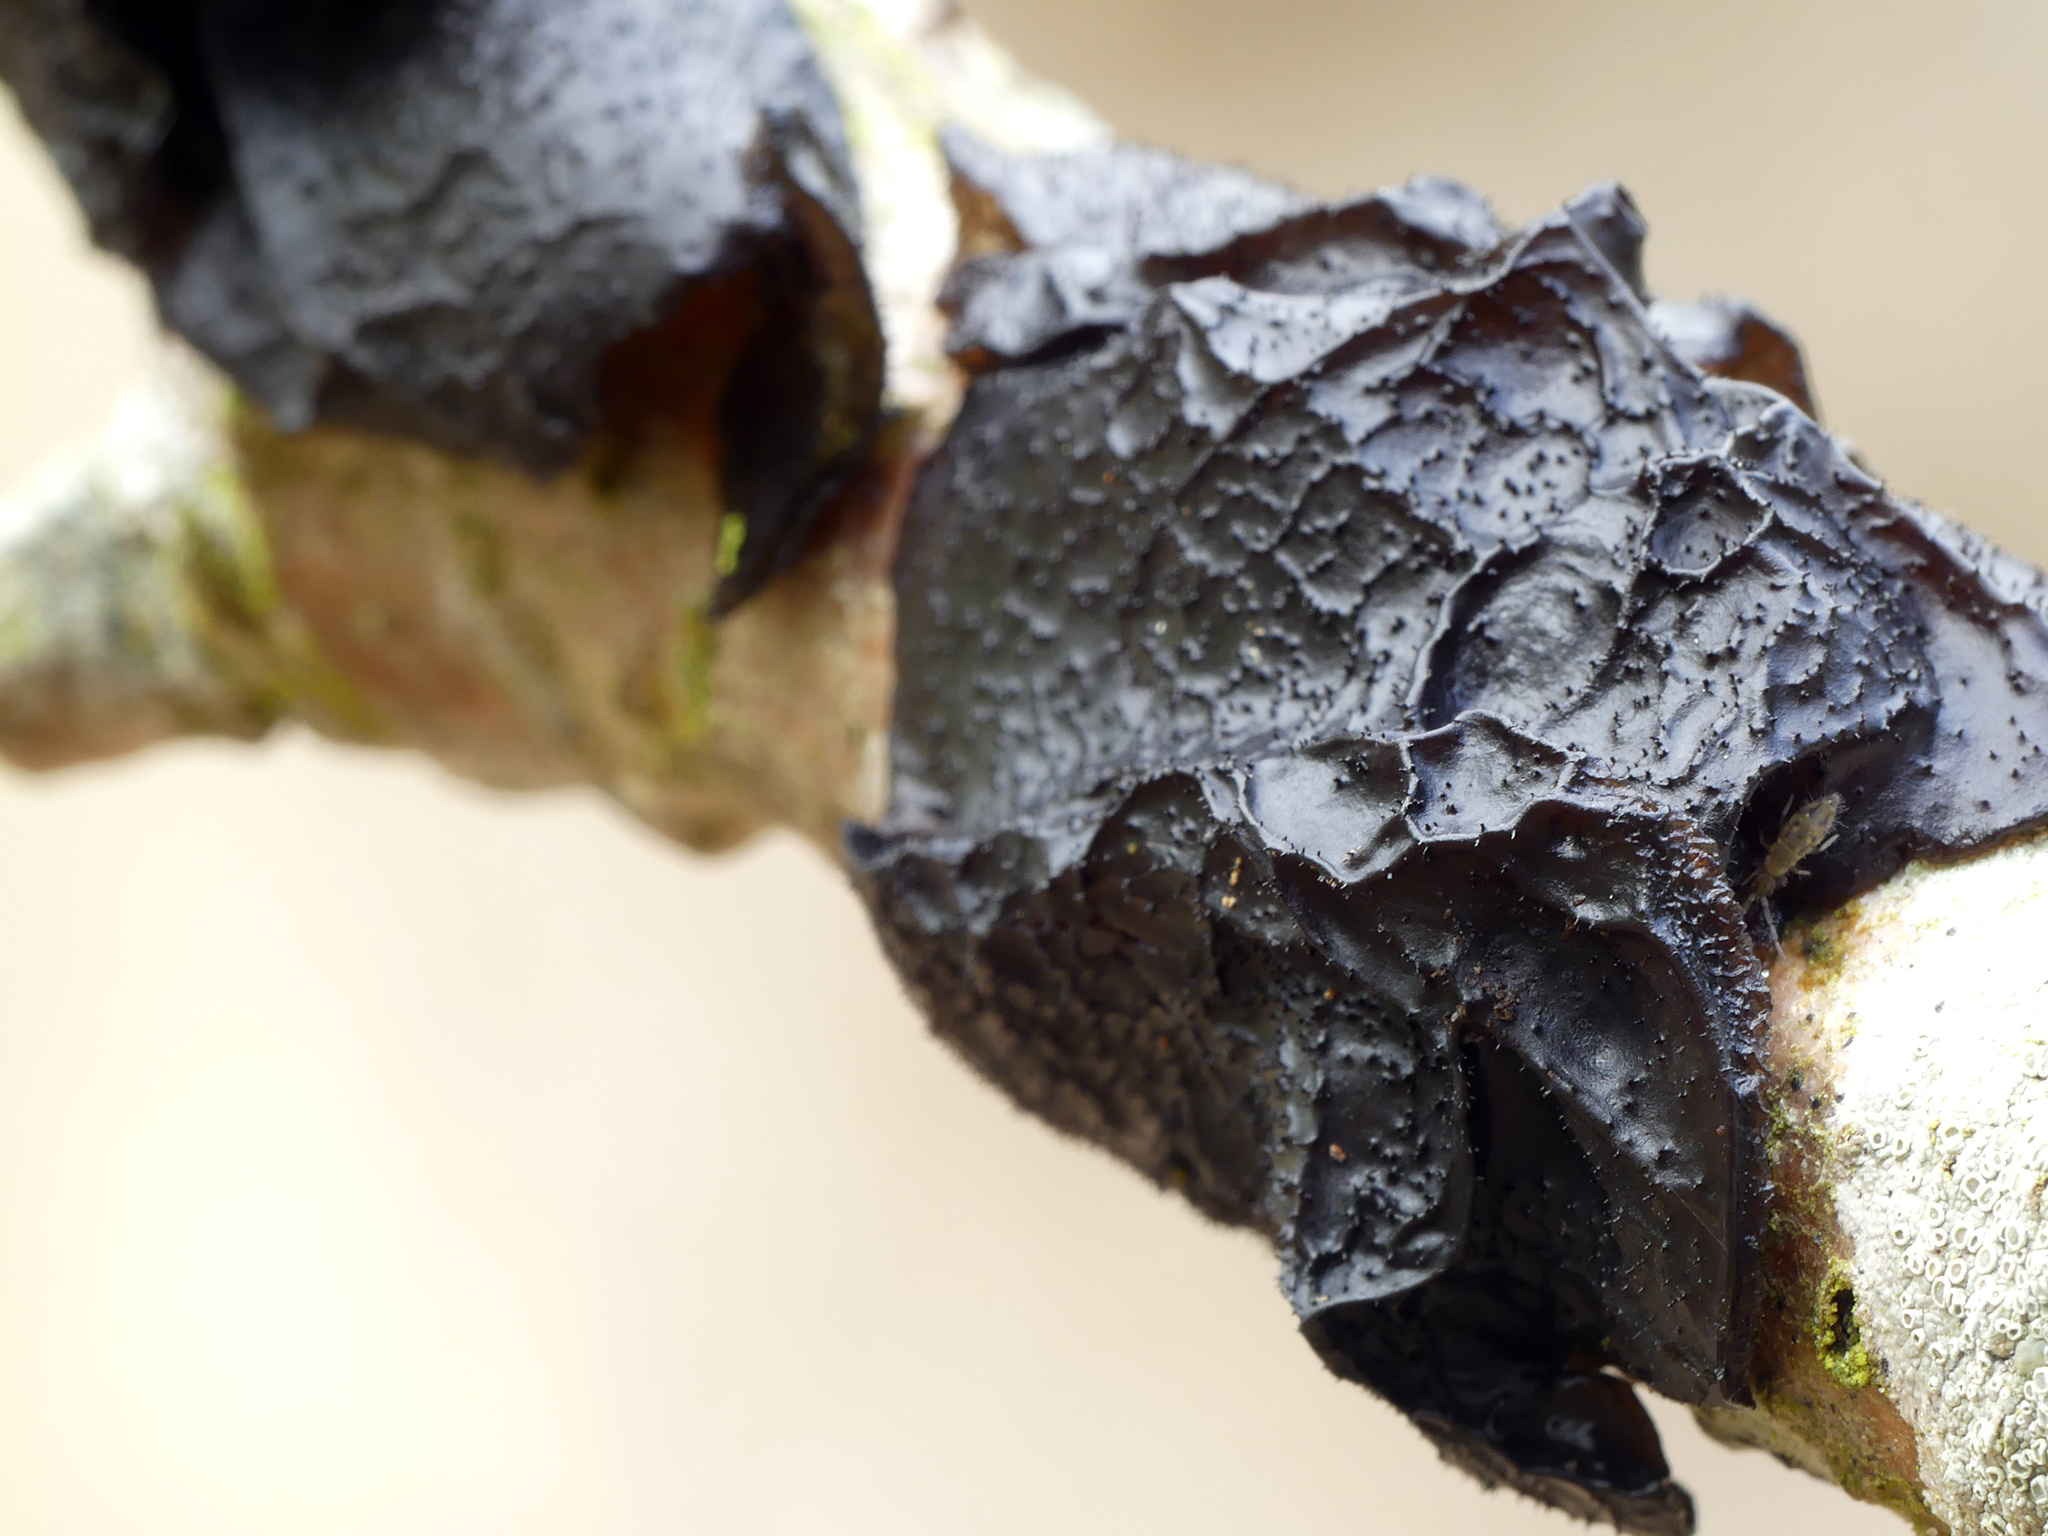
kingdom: Fungi
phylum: Basidiomycota
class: Agaricomycetes
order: Auriculariales
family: Auriculariaceae
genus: Exidia
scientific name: Exidia glandulosa
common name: Witches' butter
